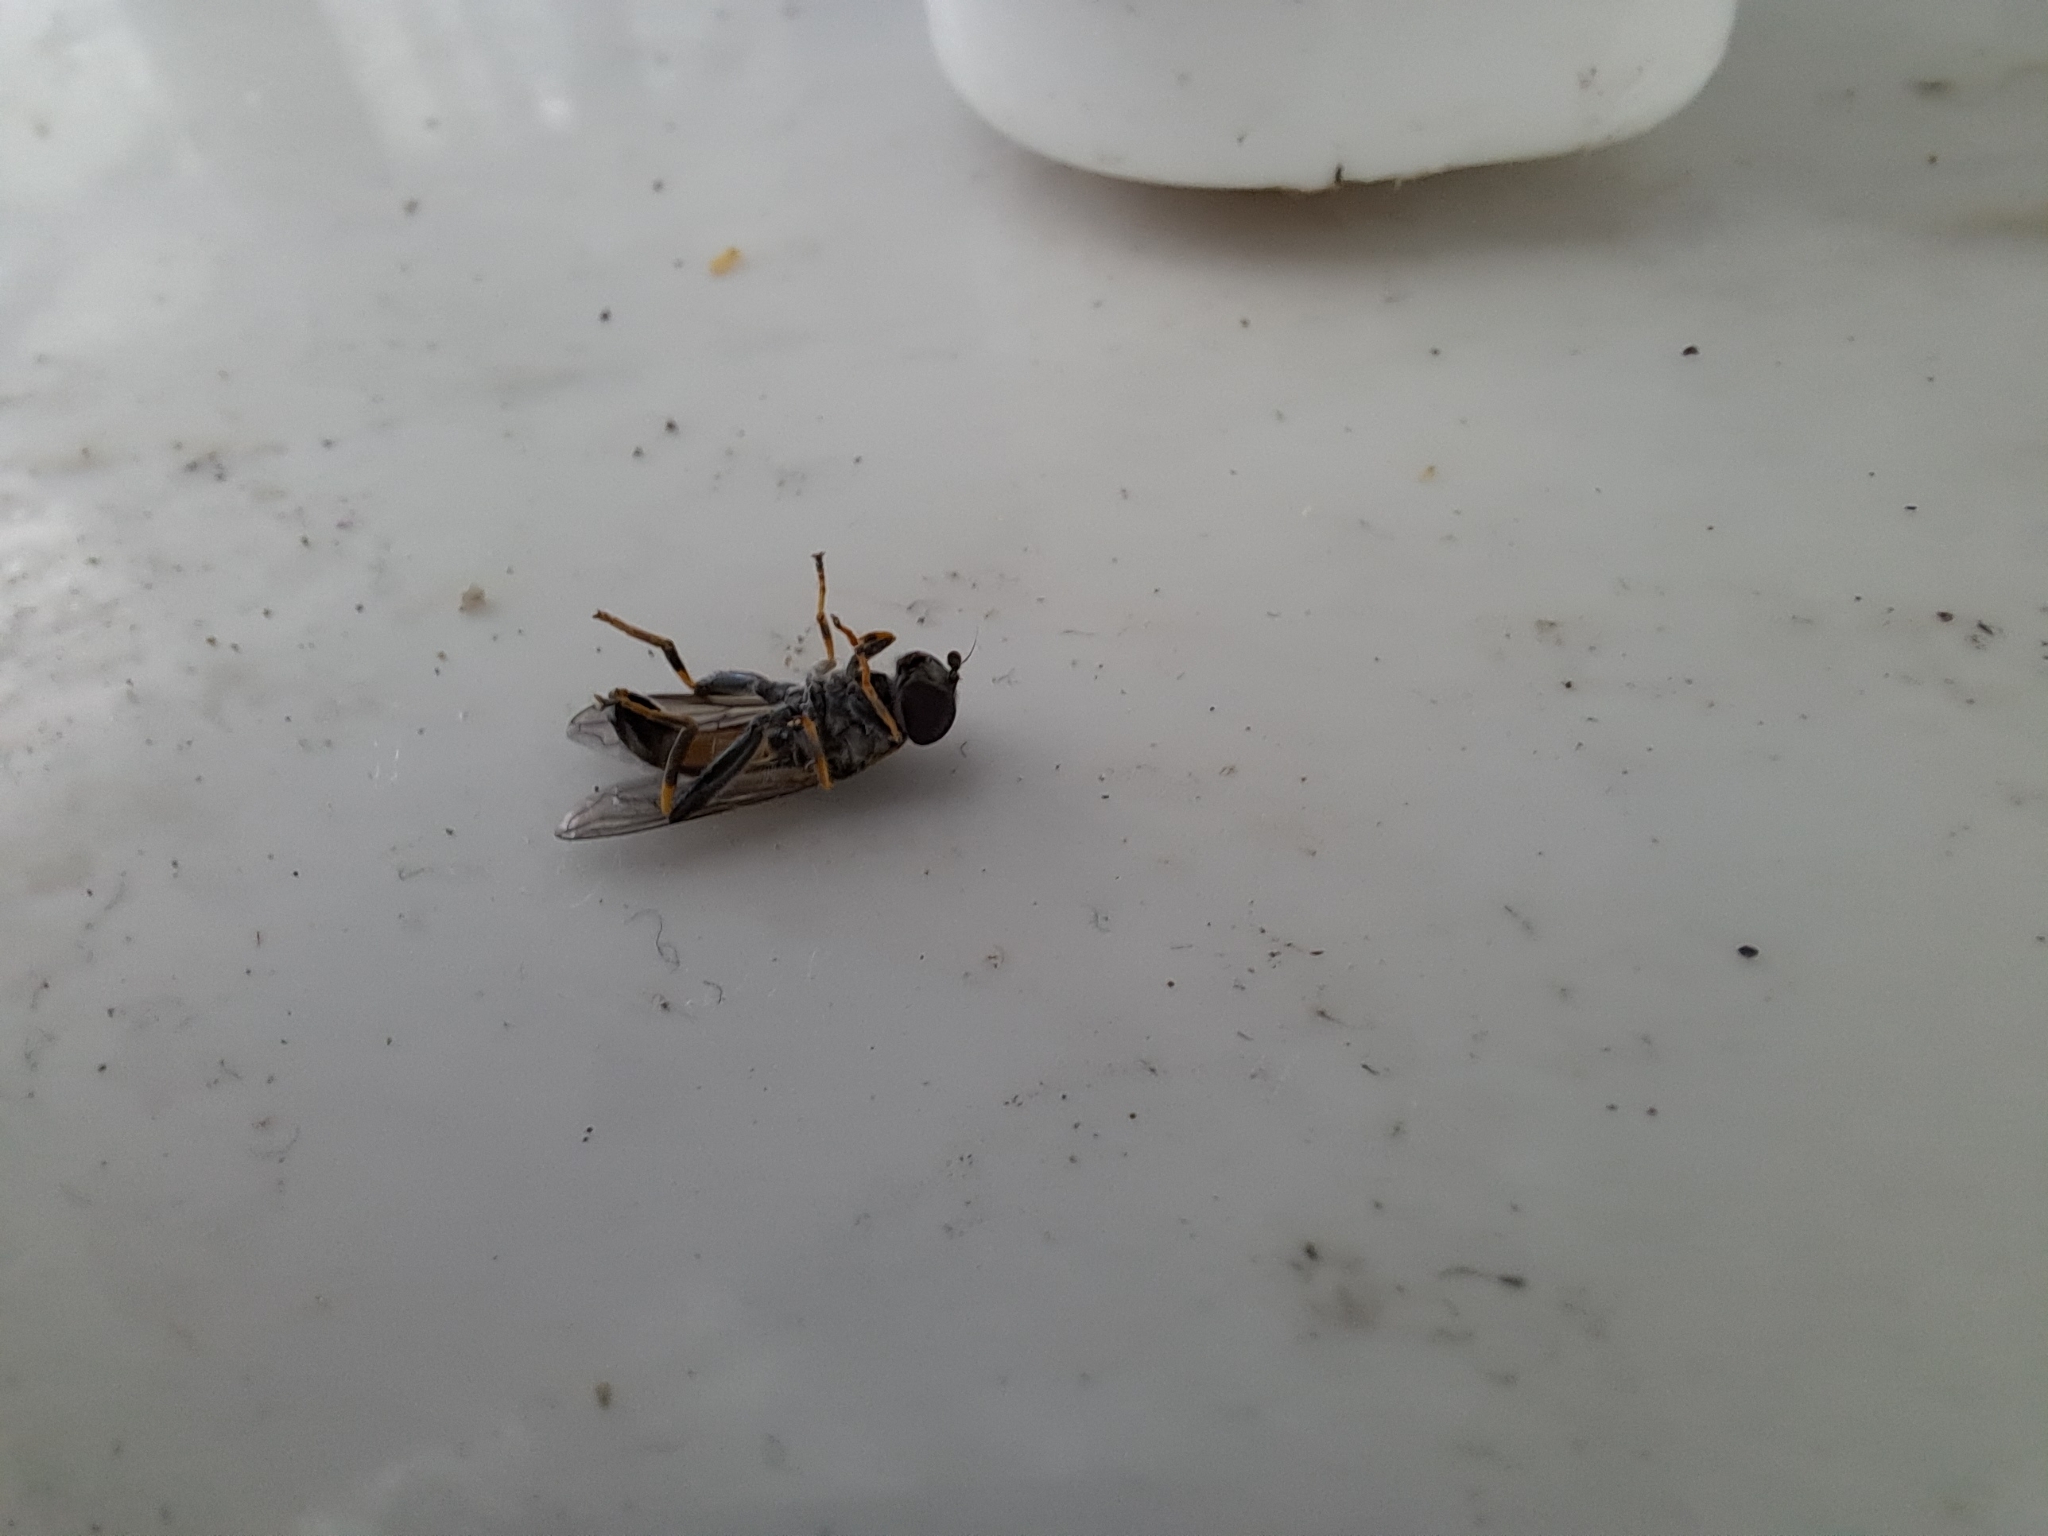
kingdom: Animalia
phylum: Arthropoda
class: Insecta
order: Diptera
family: Syrphidae
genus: Eristalis
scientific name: Eristalis tenax
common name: Drone fly
